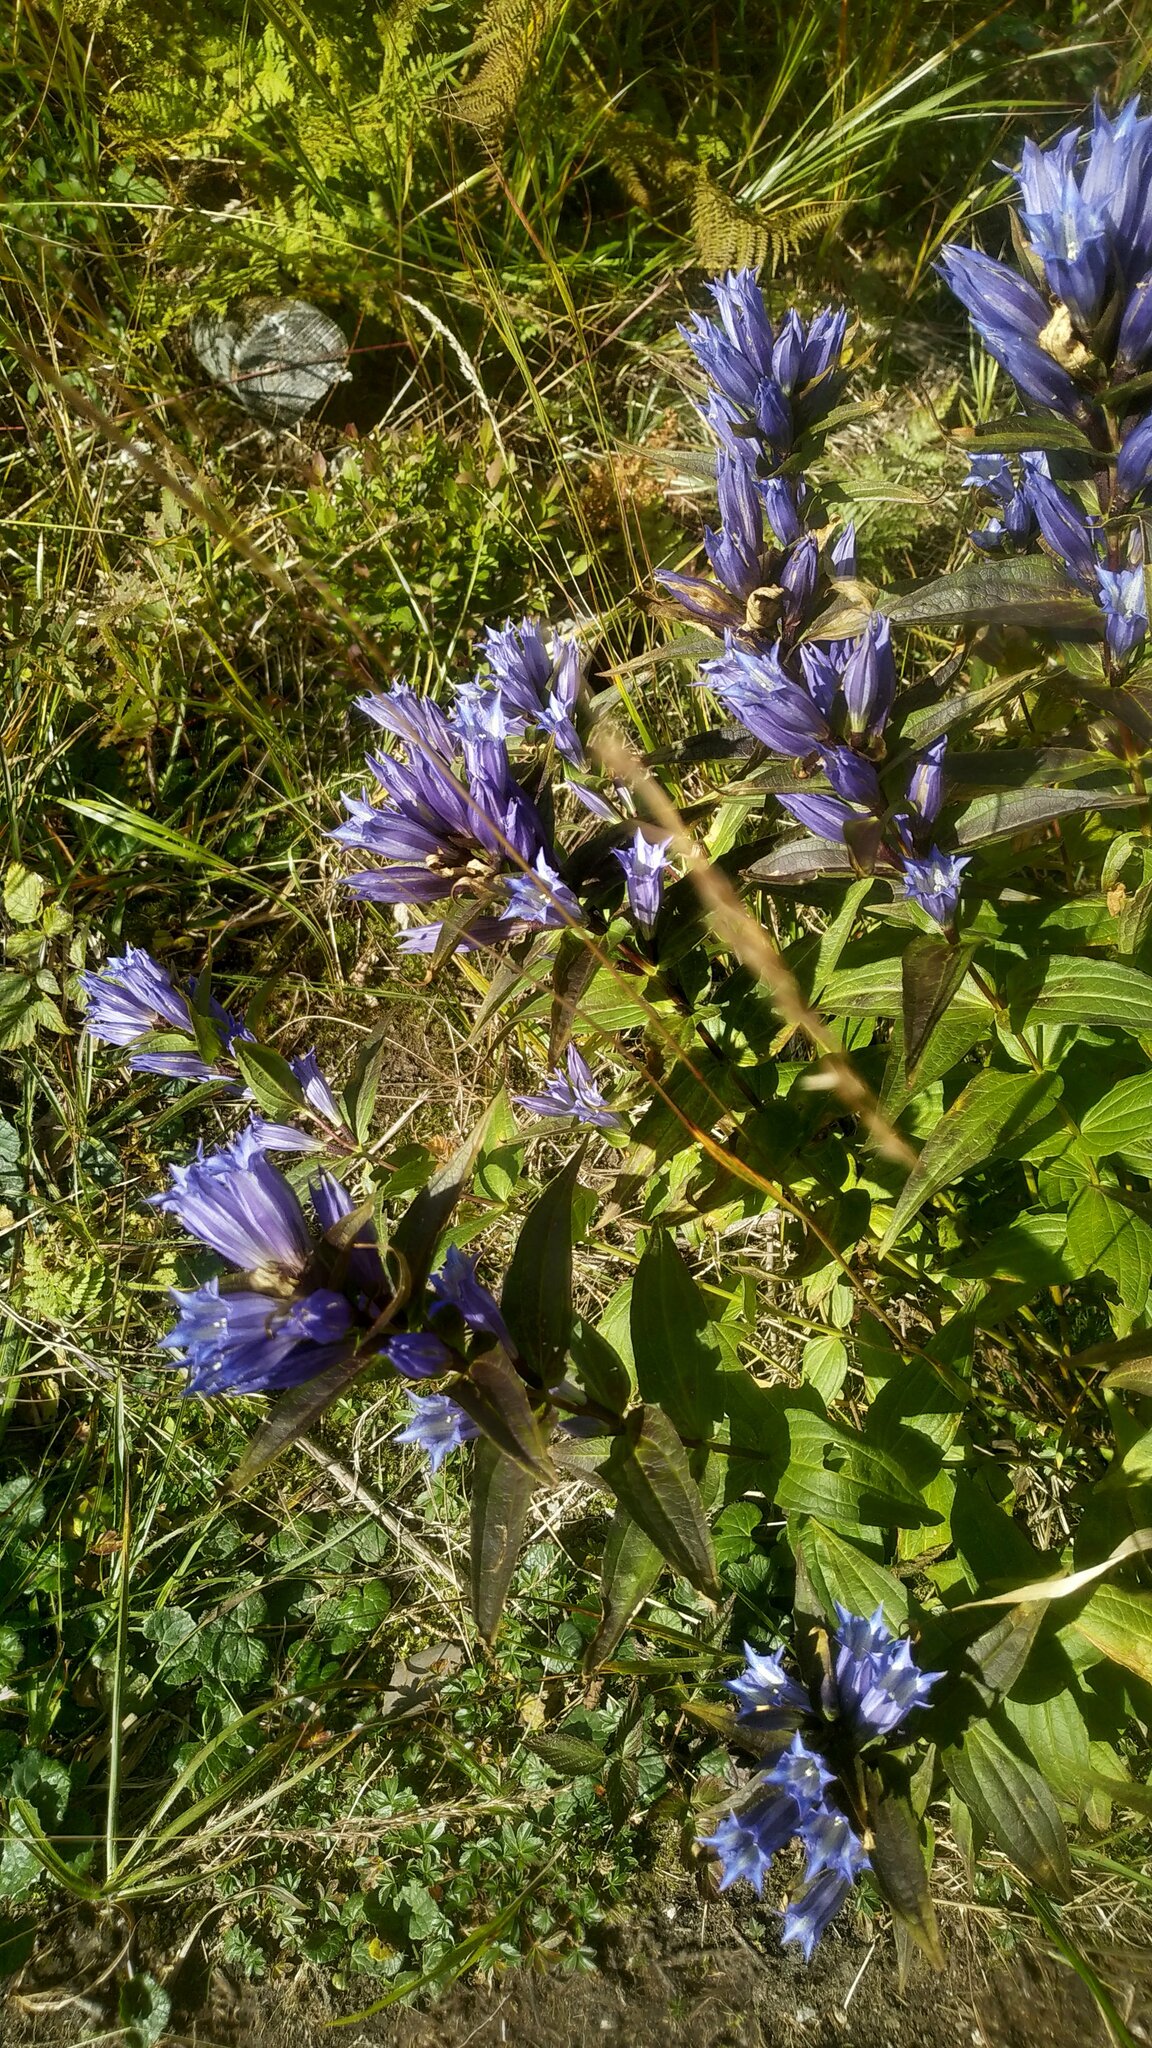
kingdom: Plantae
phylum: Tracheophyta
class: Magnoliopsida
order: Gentianales
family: Gentianaceae
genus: Gentiana
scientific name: Gentiana asclepiadea
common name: Willow gentian
